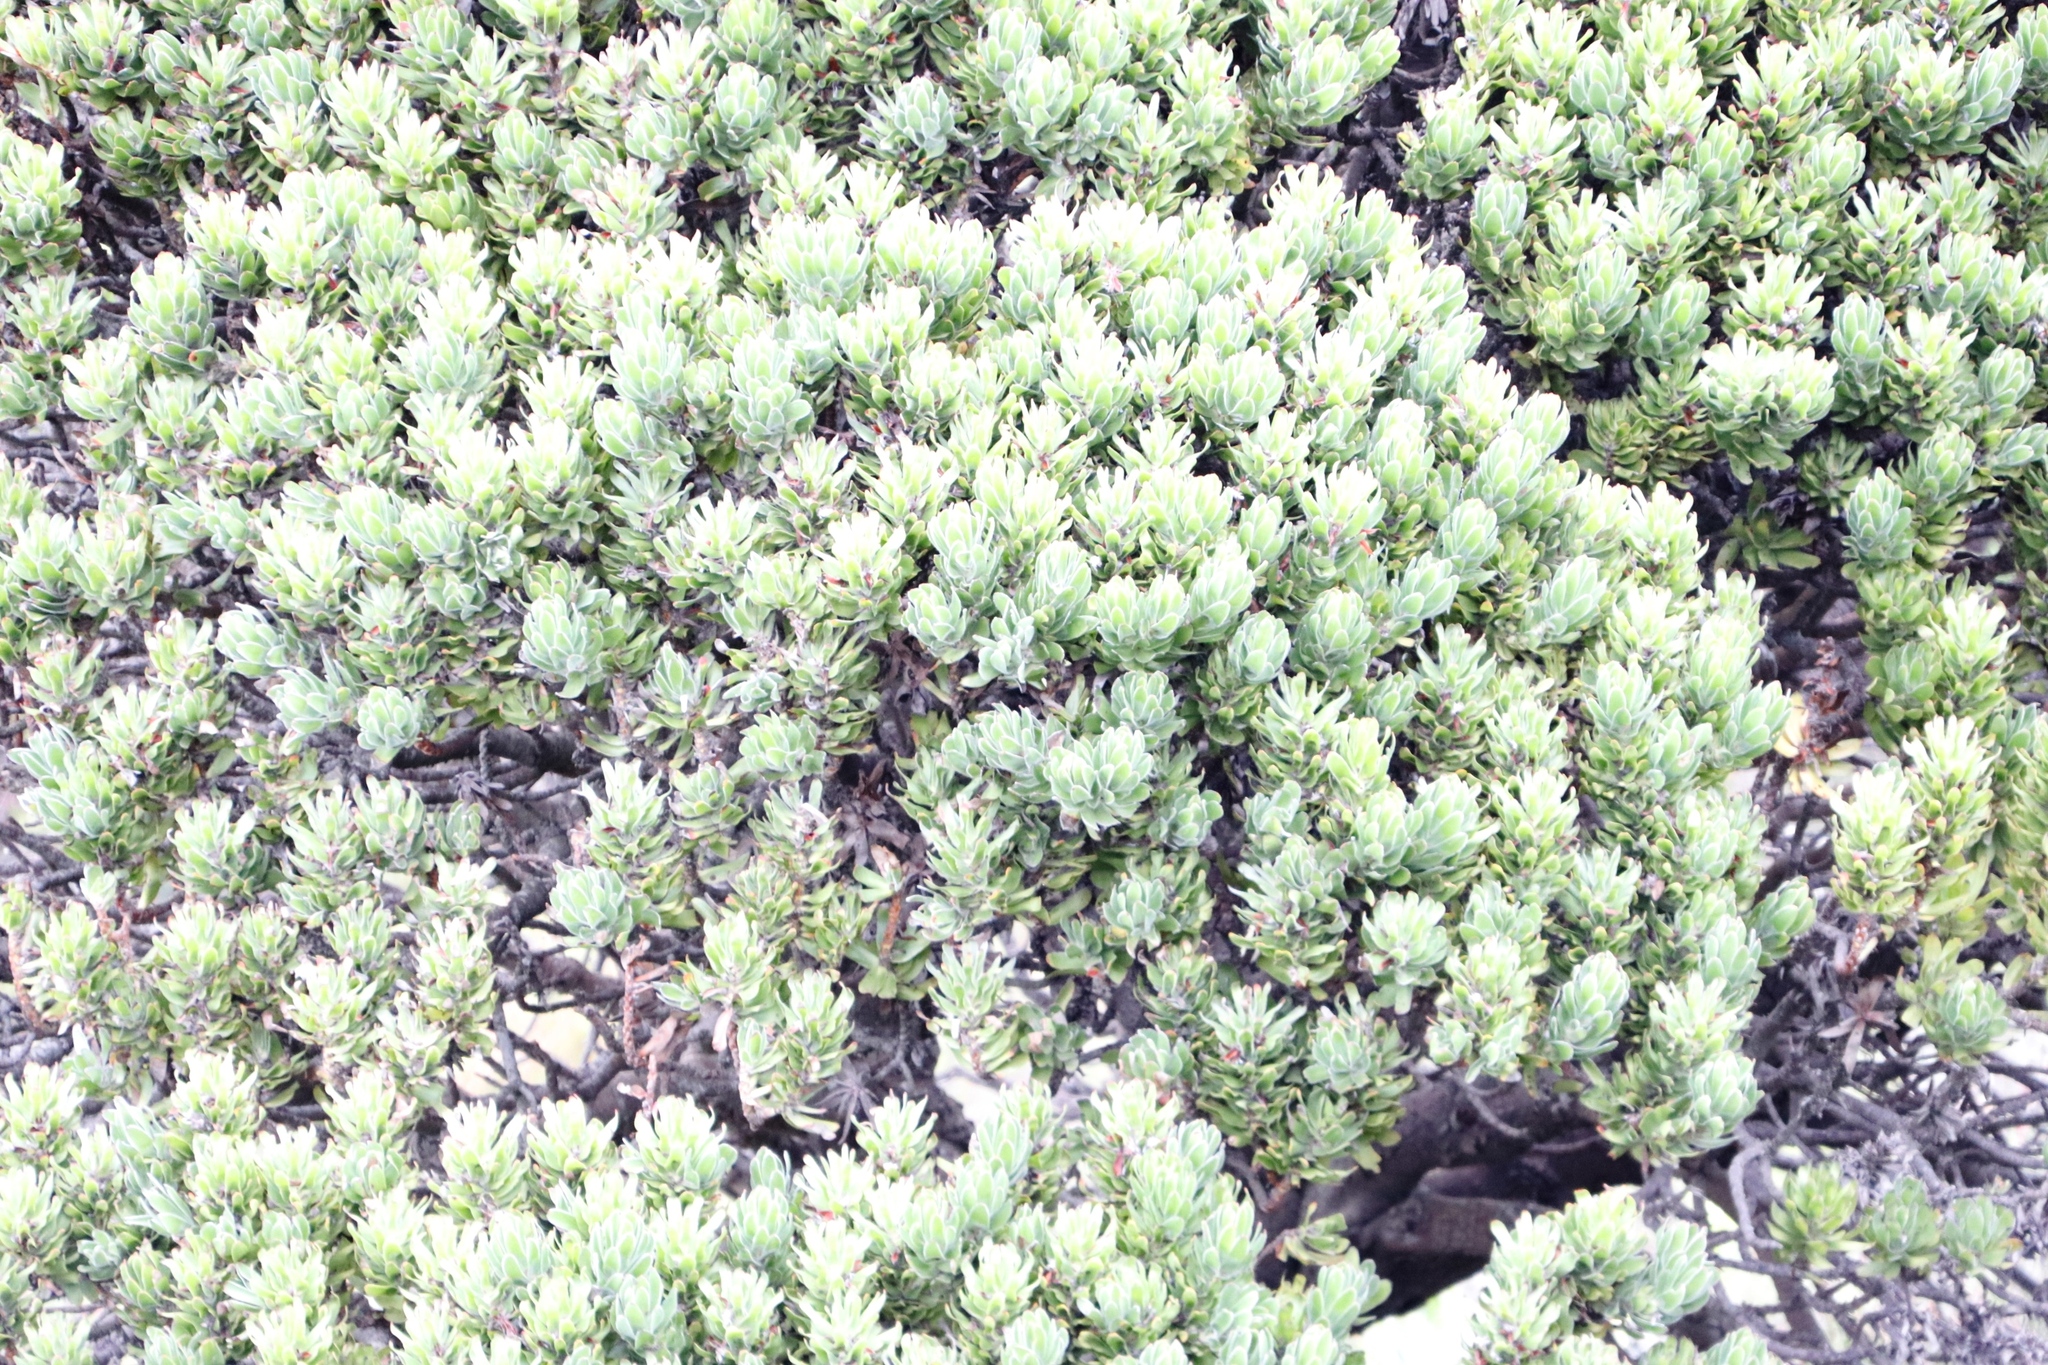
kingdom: Plantae
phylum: Tracheophyta
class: Magnoliopsida
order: Proteales
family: Proteaceae
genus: Mimetes
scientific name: Mimetes fimbriifolius
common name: Fringed bottlebrush
